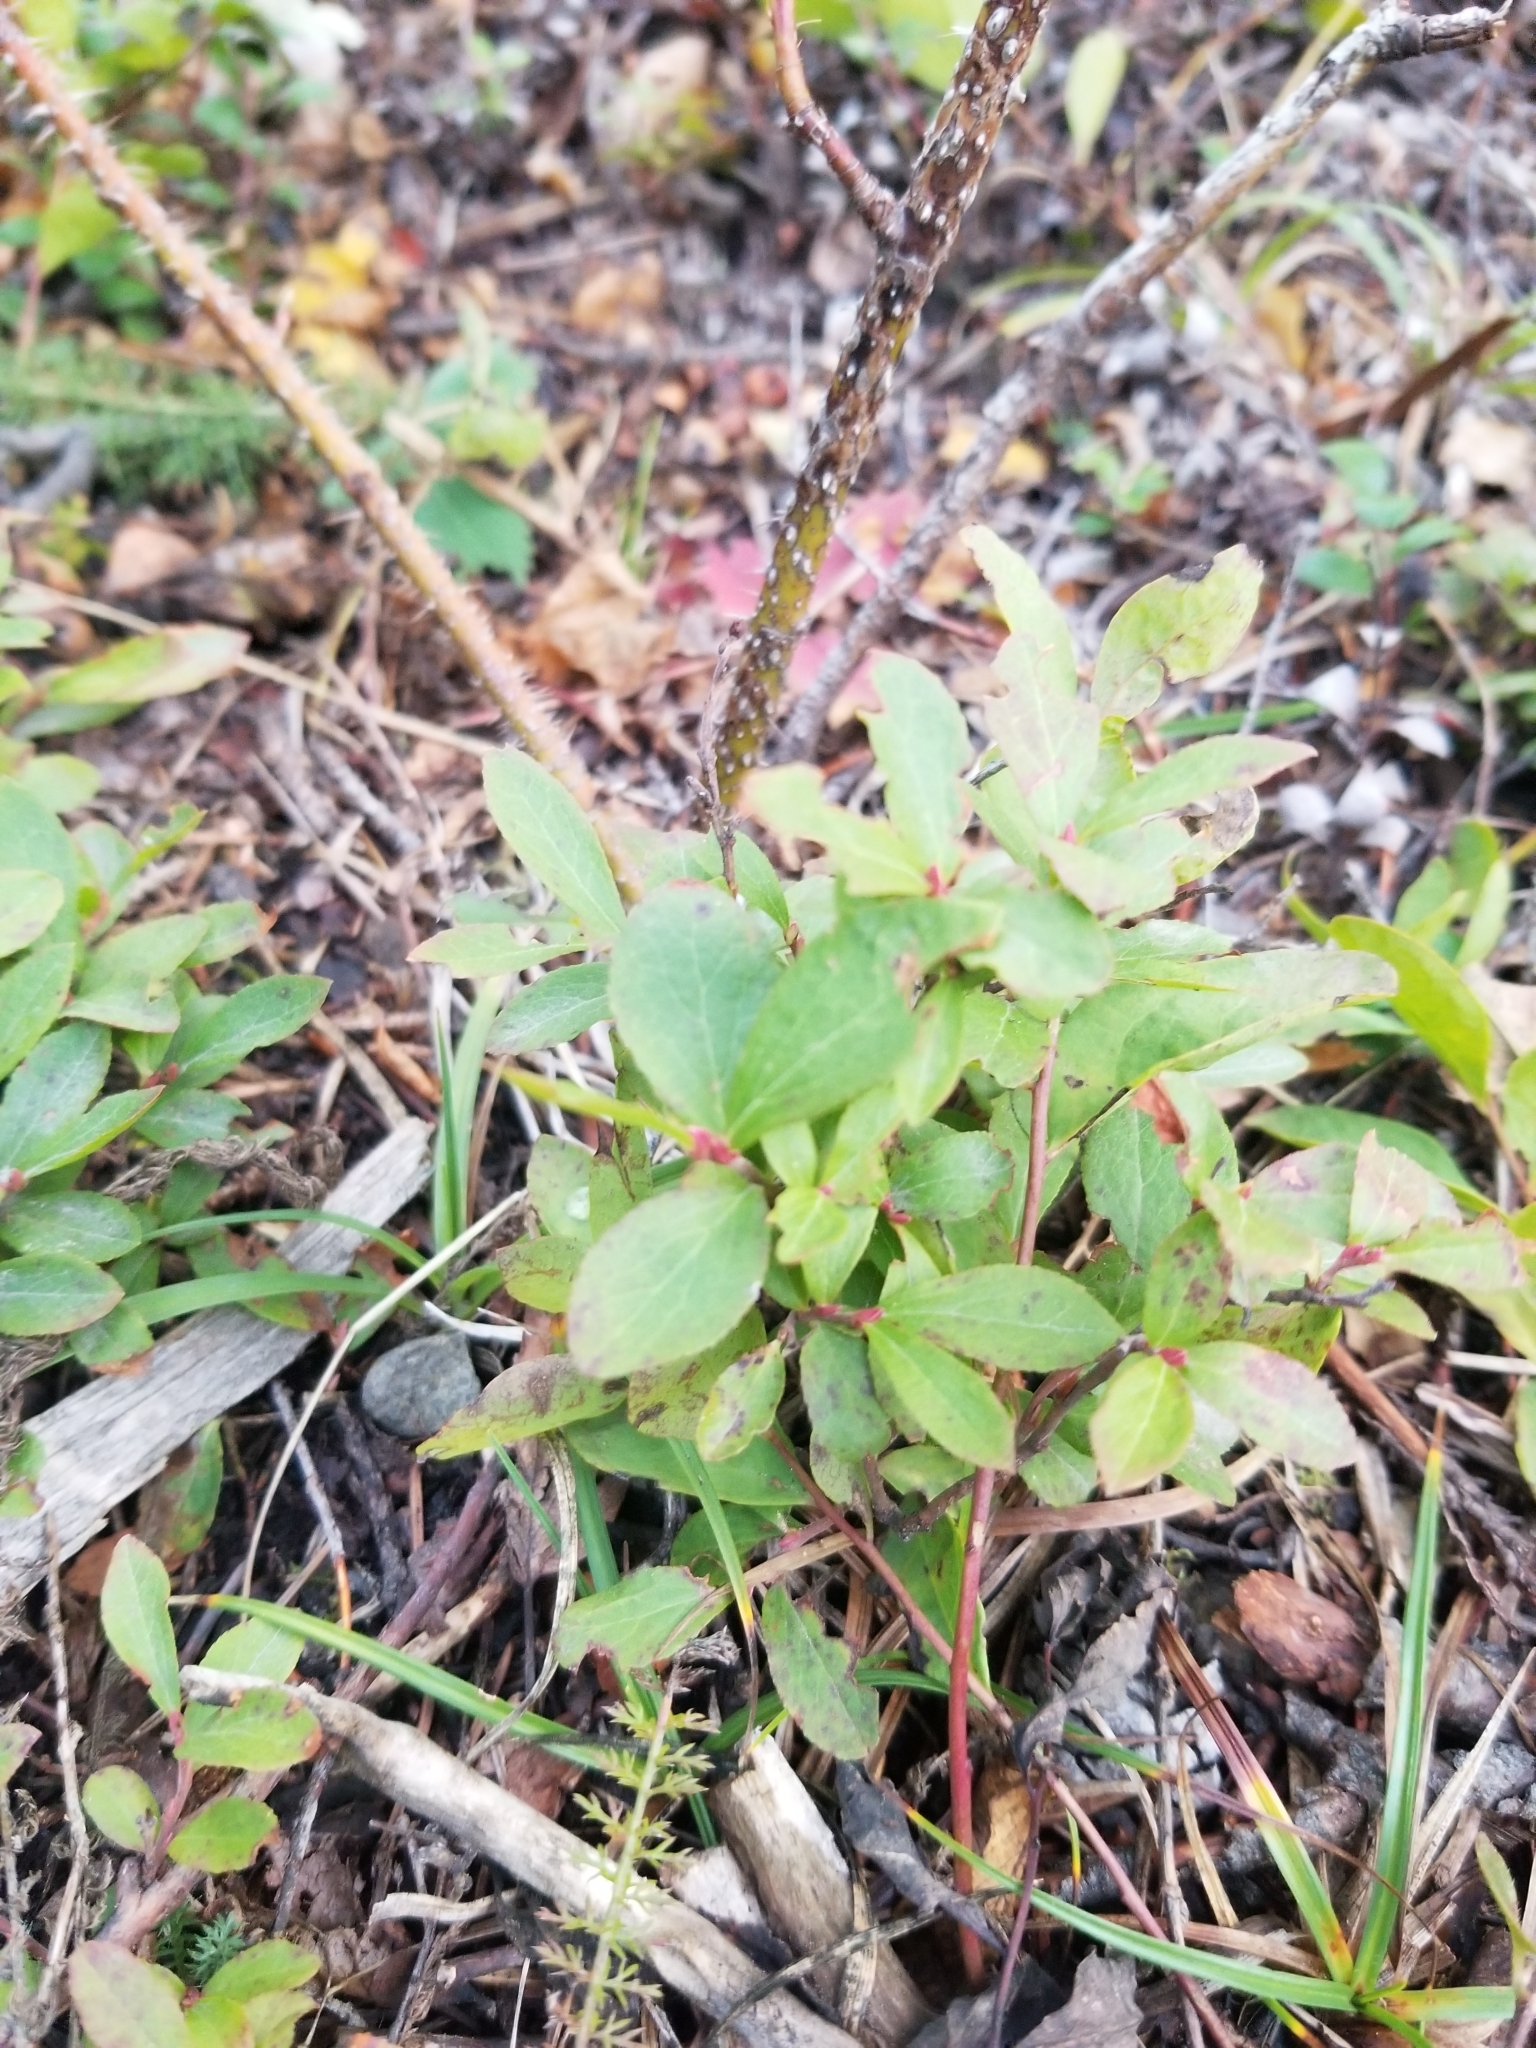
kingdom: Plantae
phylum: Tracheophyta
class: Magnoliopsida
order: Ericales
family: Ericaceae
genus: Vaccinium
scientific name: Vaccinium cespitosum
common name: Dwarf bilberry
